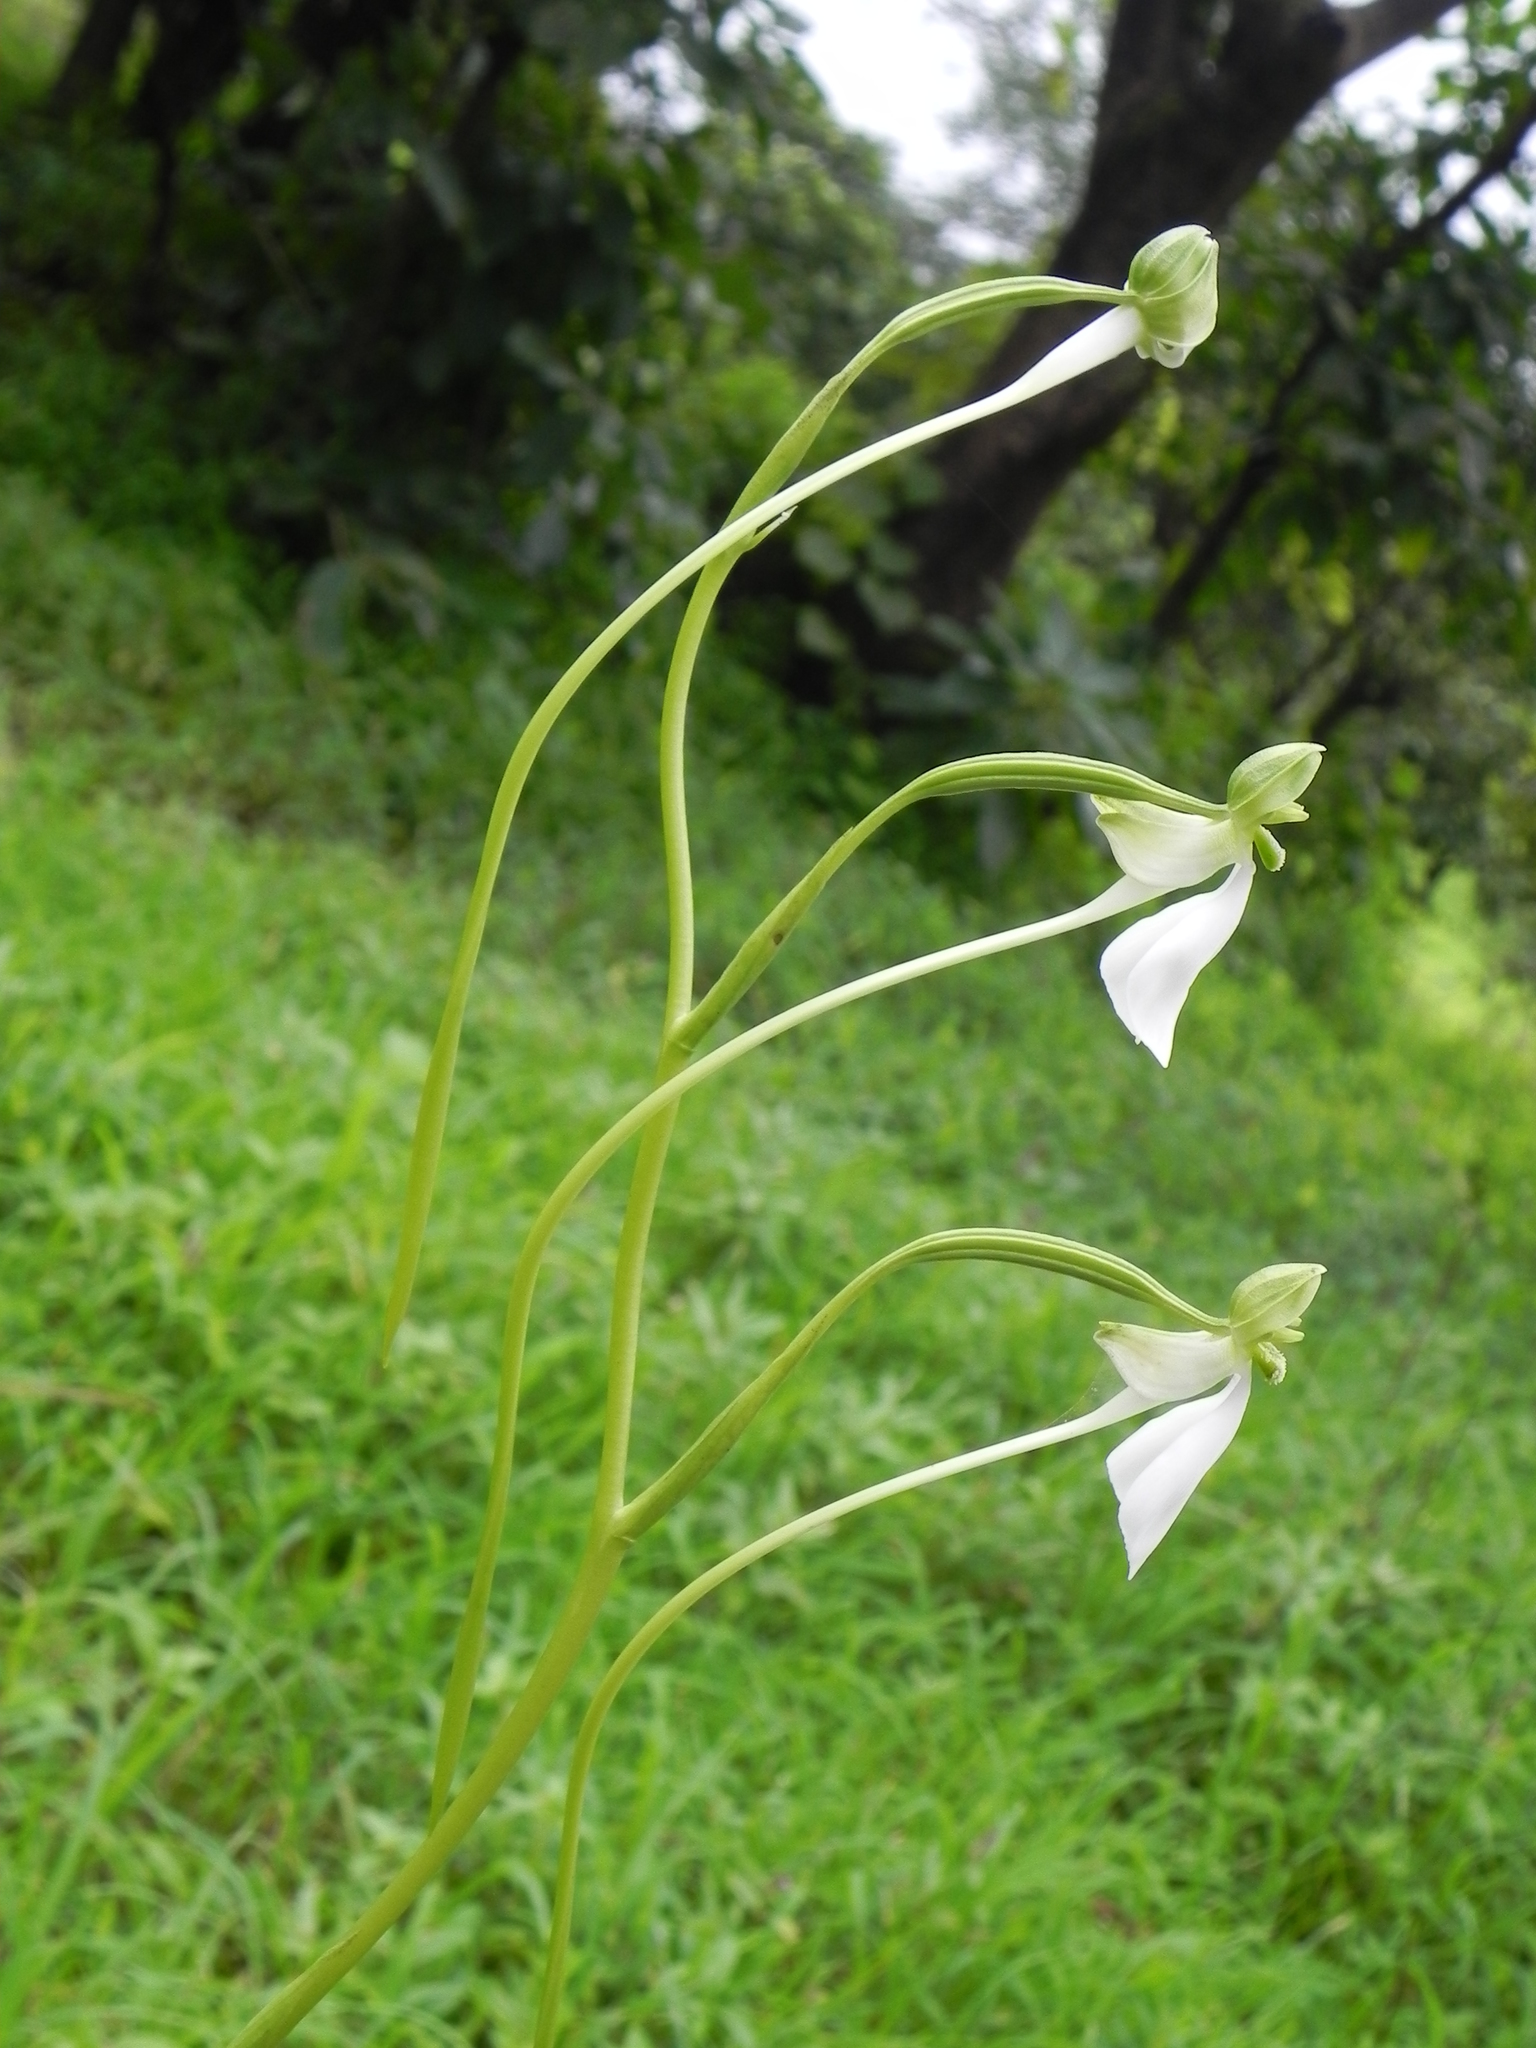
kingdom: Plantae
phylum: Tracheophyta
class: Liliopsida
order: Asparagales
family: Orchidaceae
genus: Habenaria
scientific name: Habenaria longicorniculata
